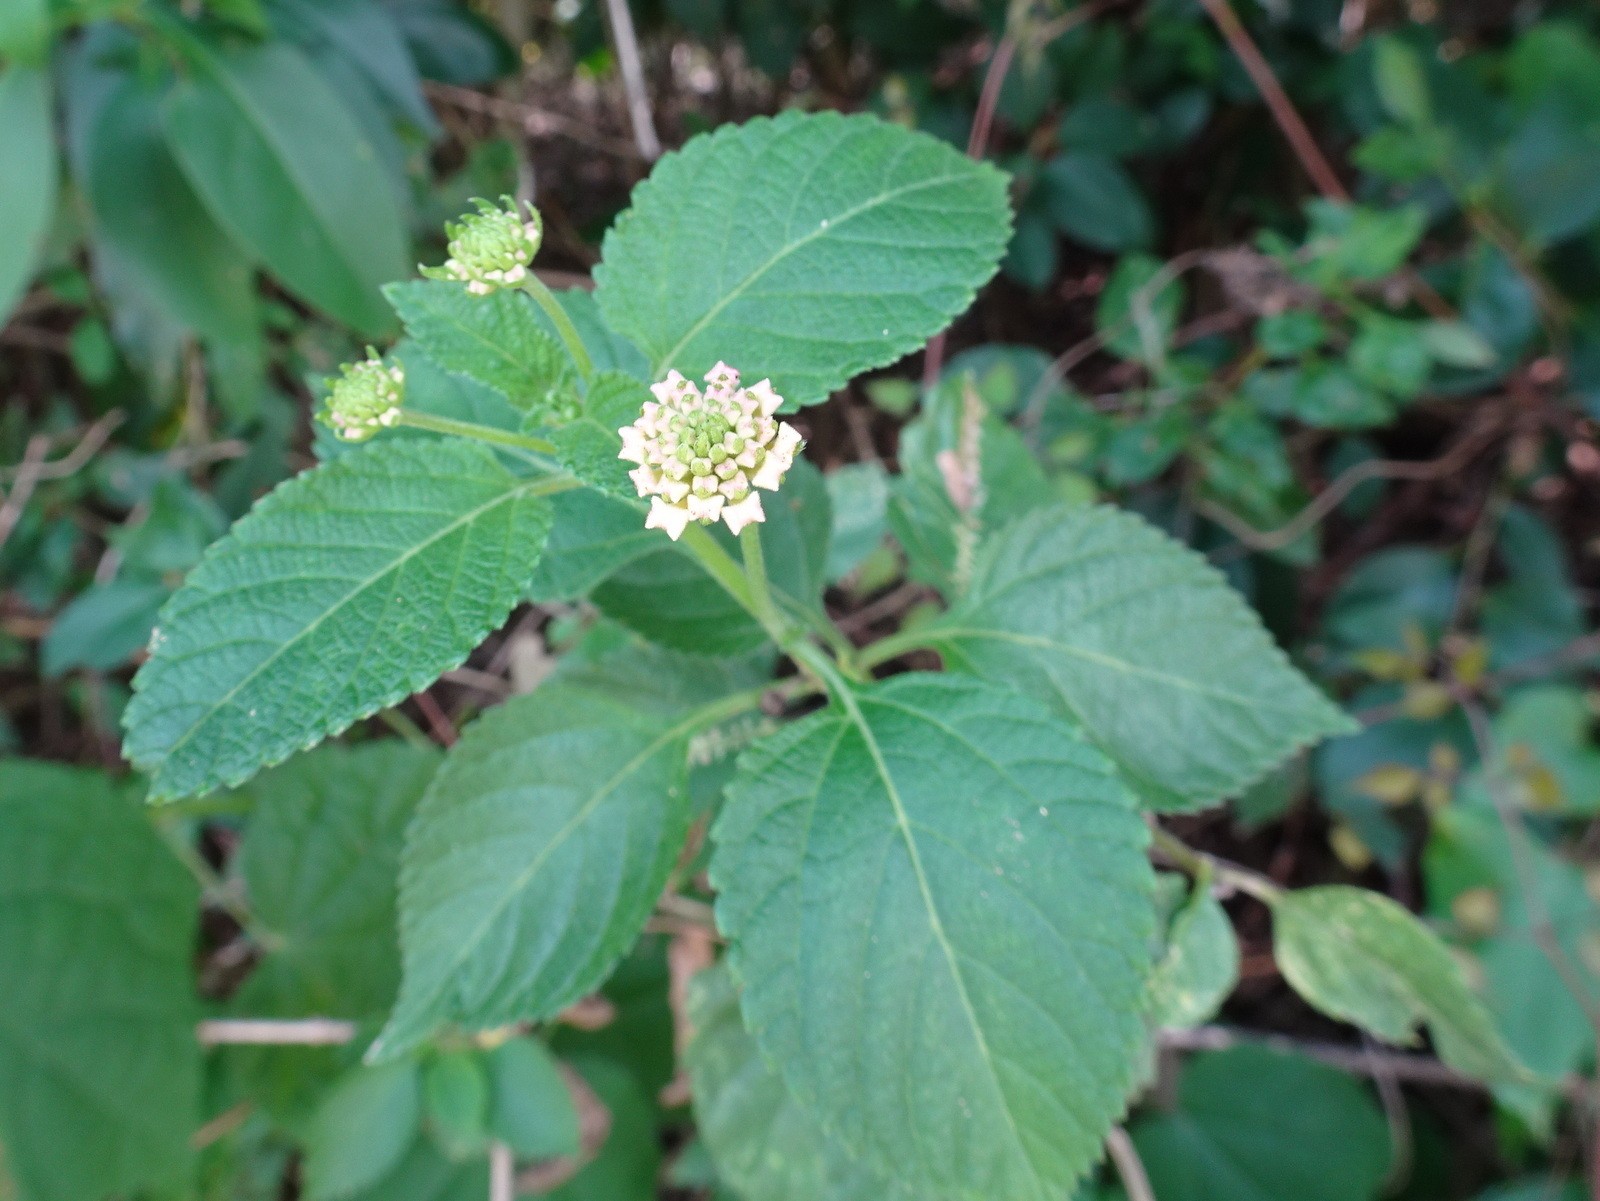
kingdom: Plantae
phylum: Tracheophyta
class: Magnoliopsida
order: Lamiales
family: Verbenaceae
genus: Lantana
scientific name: Lantana camara
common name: Lantana
